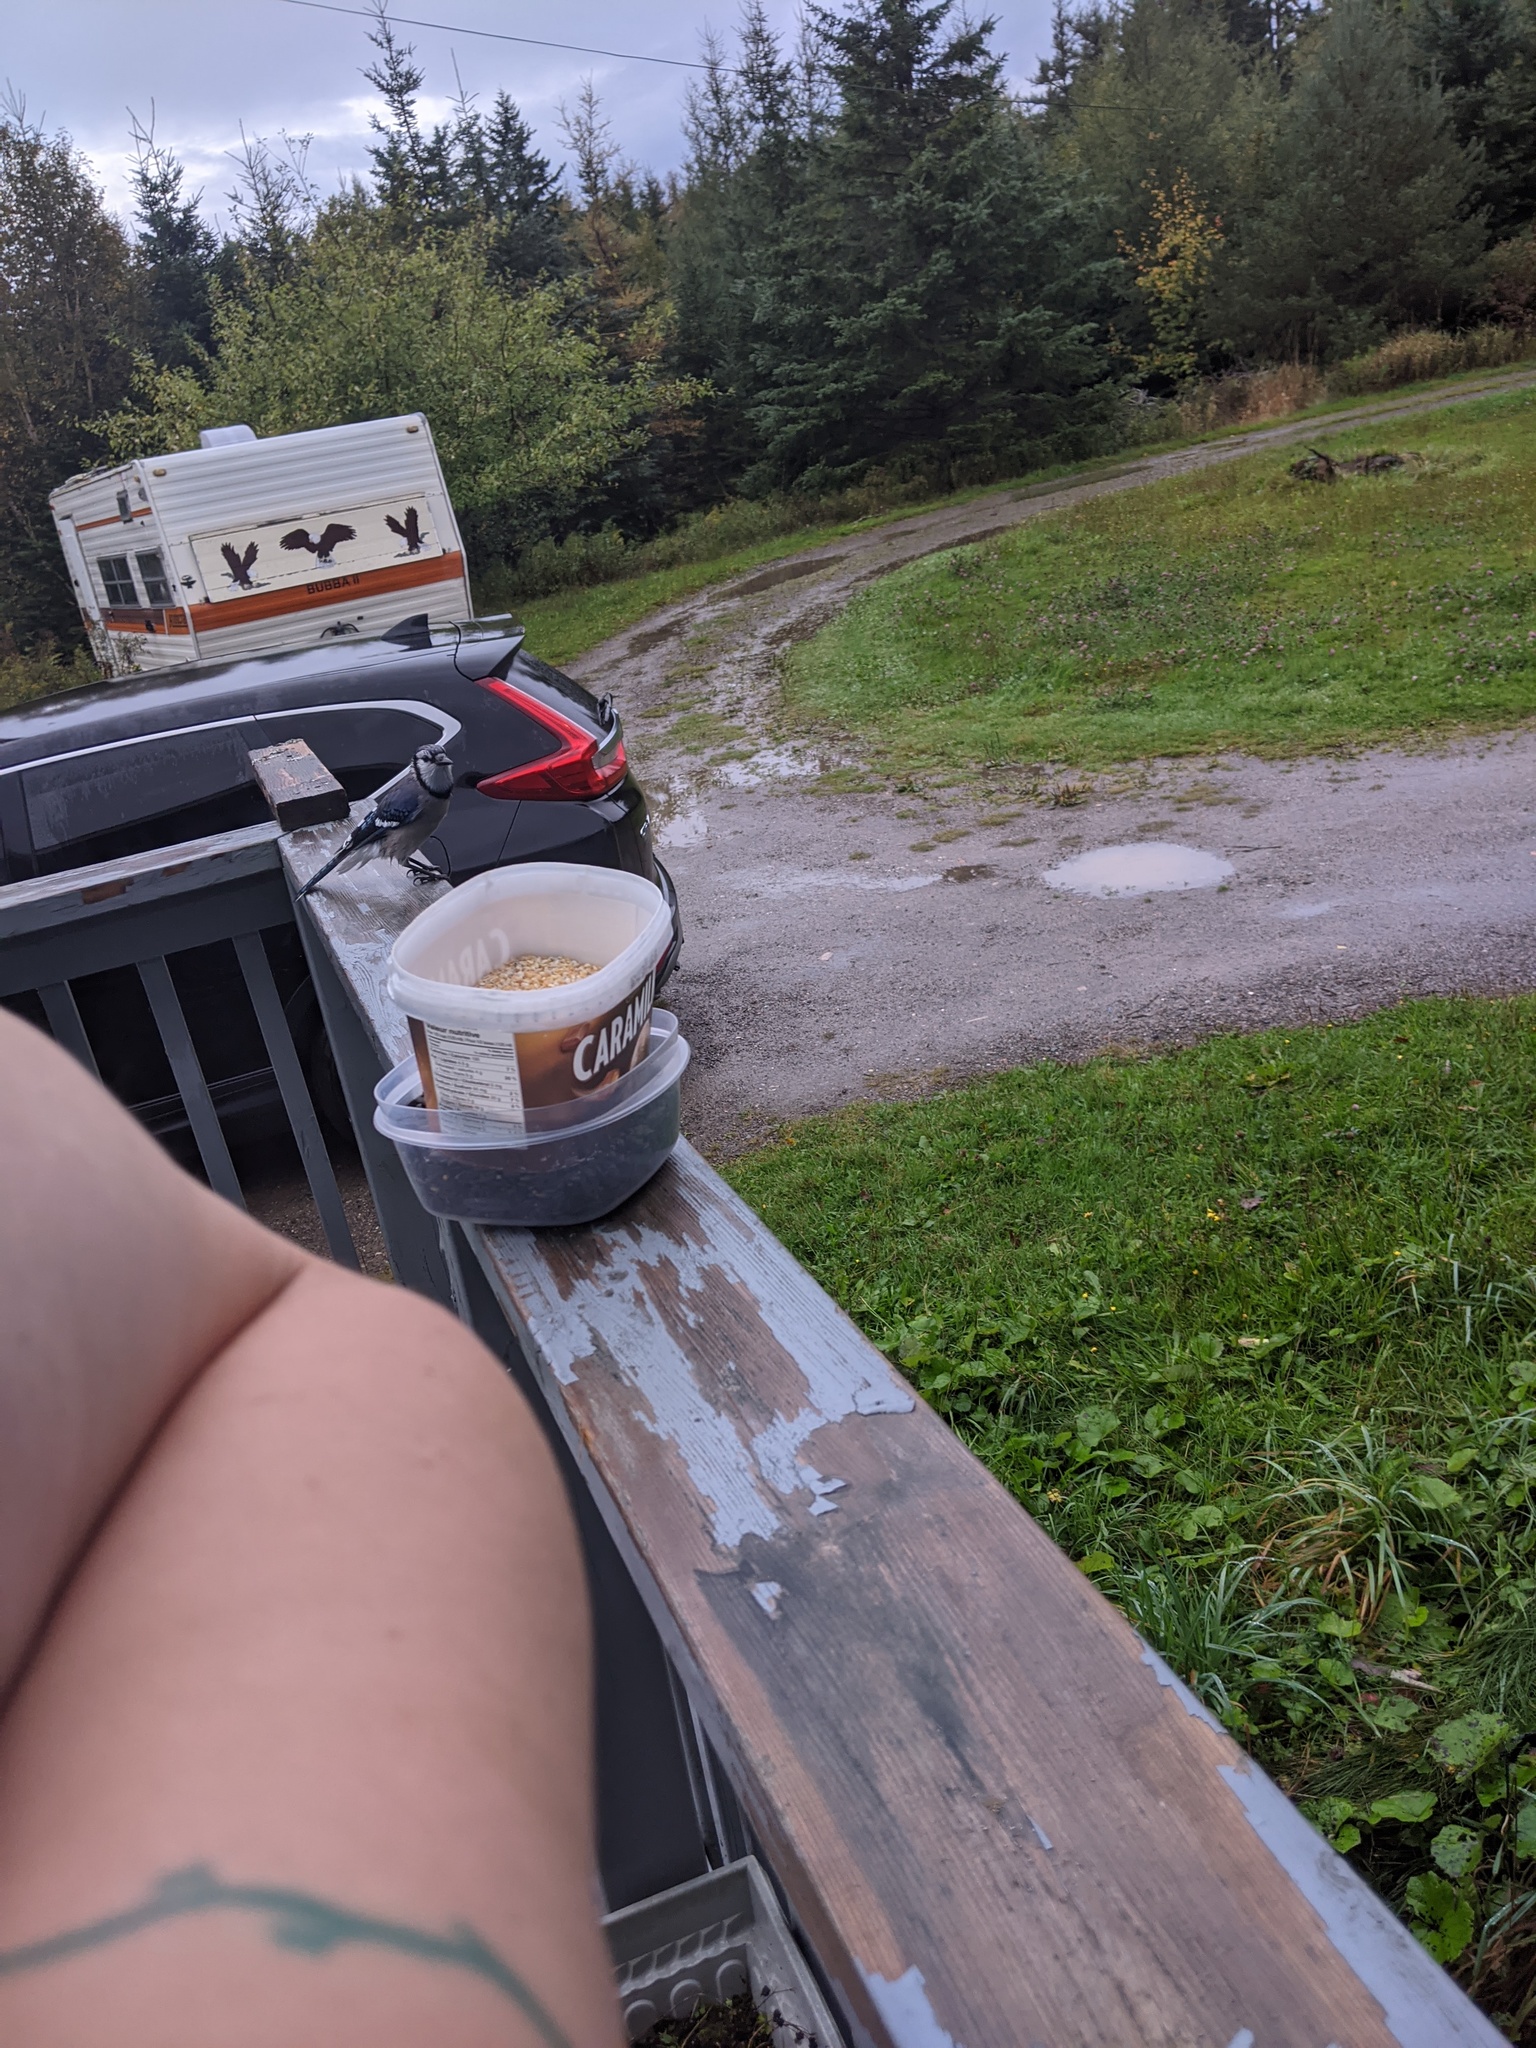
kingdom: Animalia
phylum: Chordata
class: Aves
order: Passeriformes
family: Corvidae
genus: Cyanocitta
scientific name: Cyanocitta cristata
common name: Blue jay
